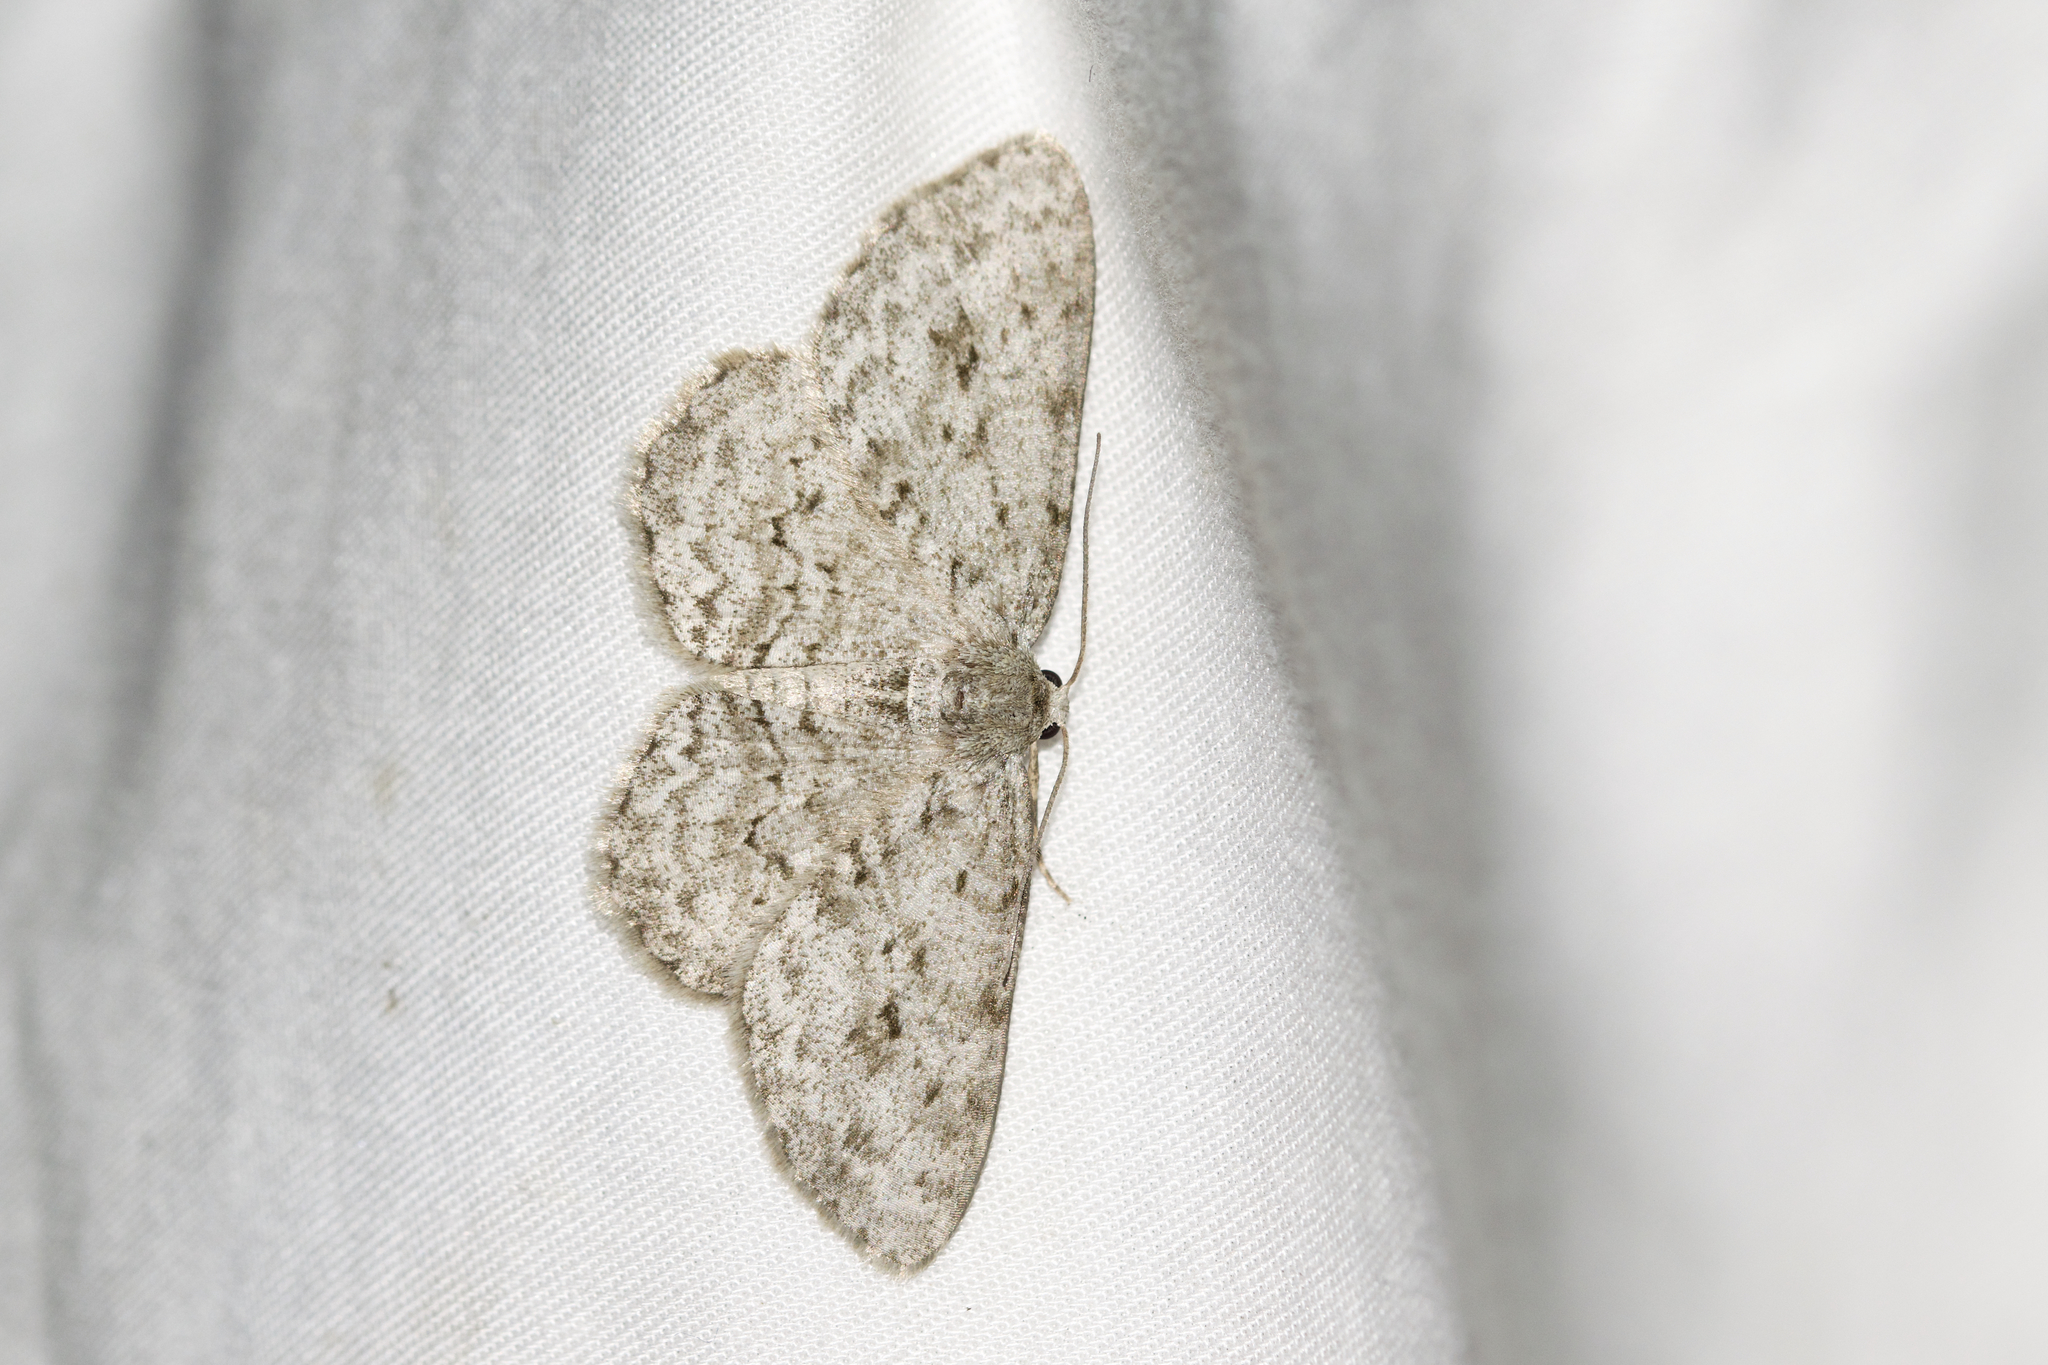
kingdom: Animalia
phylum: Arthropoda
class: Insecta
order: Lepidoptera
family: Geometridae
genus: Ectropis
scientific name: Ectropis crepuscularia
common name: Engrailed
